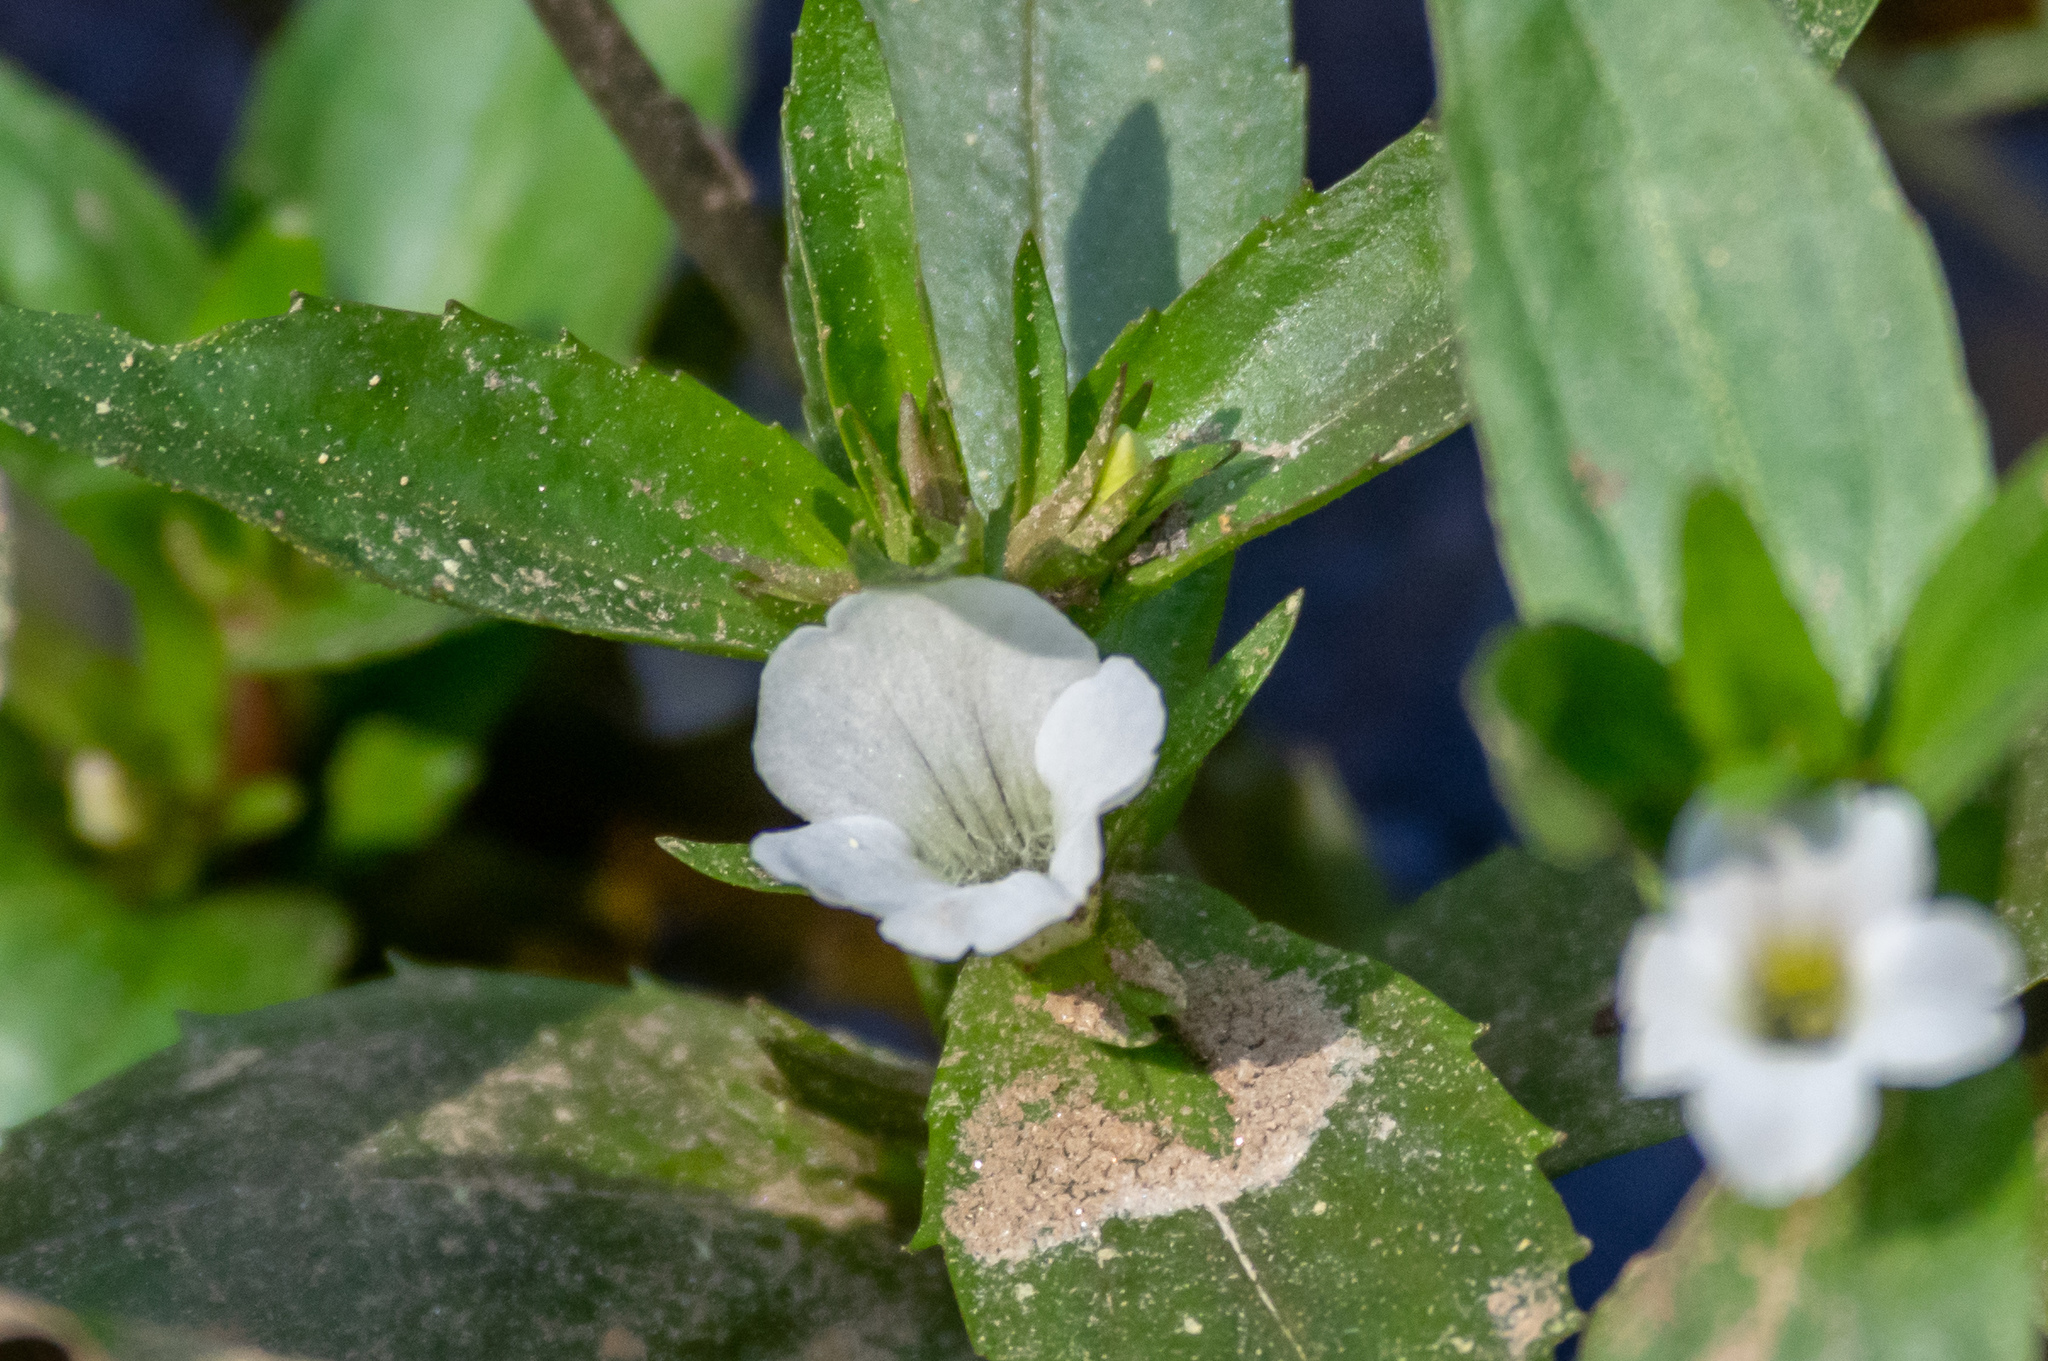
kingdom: Plantae
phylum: Tracheophyta
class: Magnoliopsida
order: Lamiales
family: Plantaginaceae
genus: Gratiola
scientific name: Gratiola neglecta
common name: American hedge-hyssop
